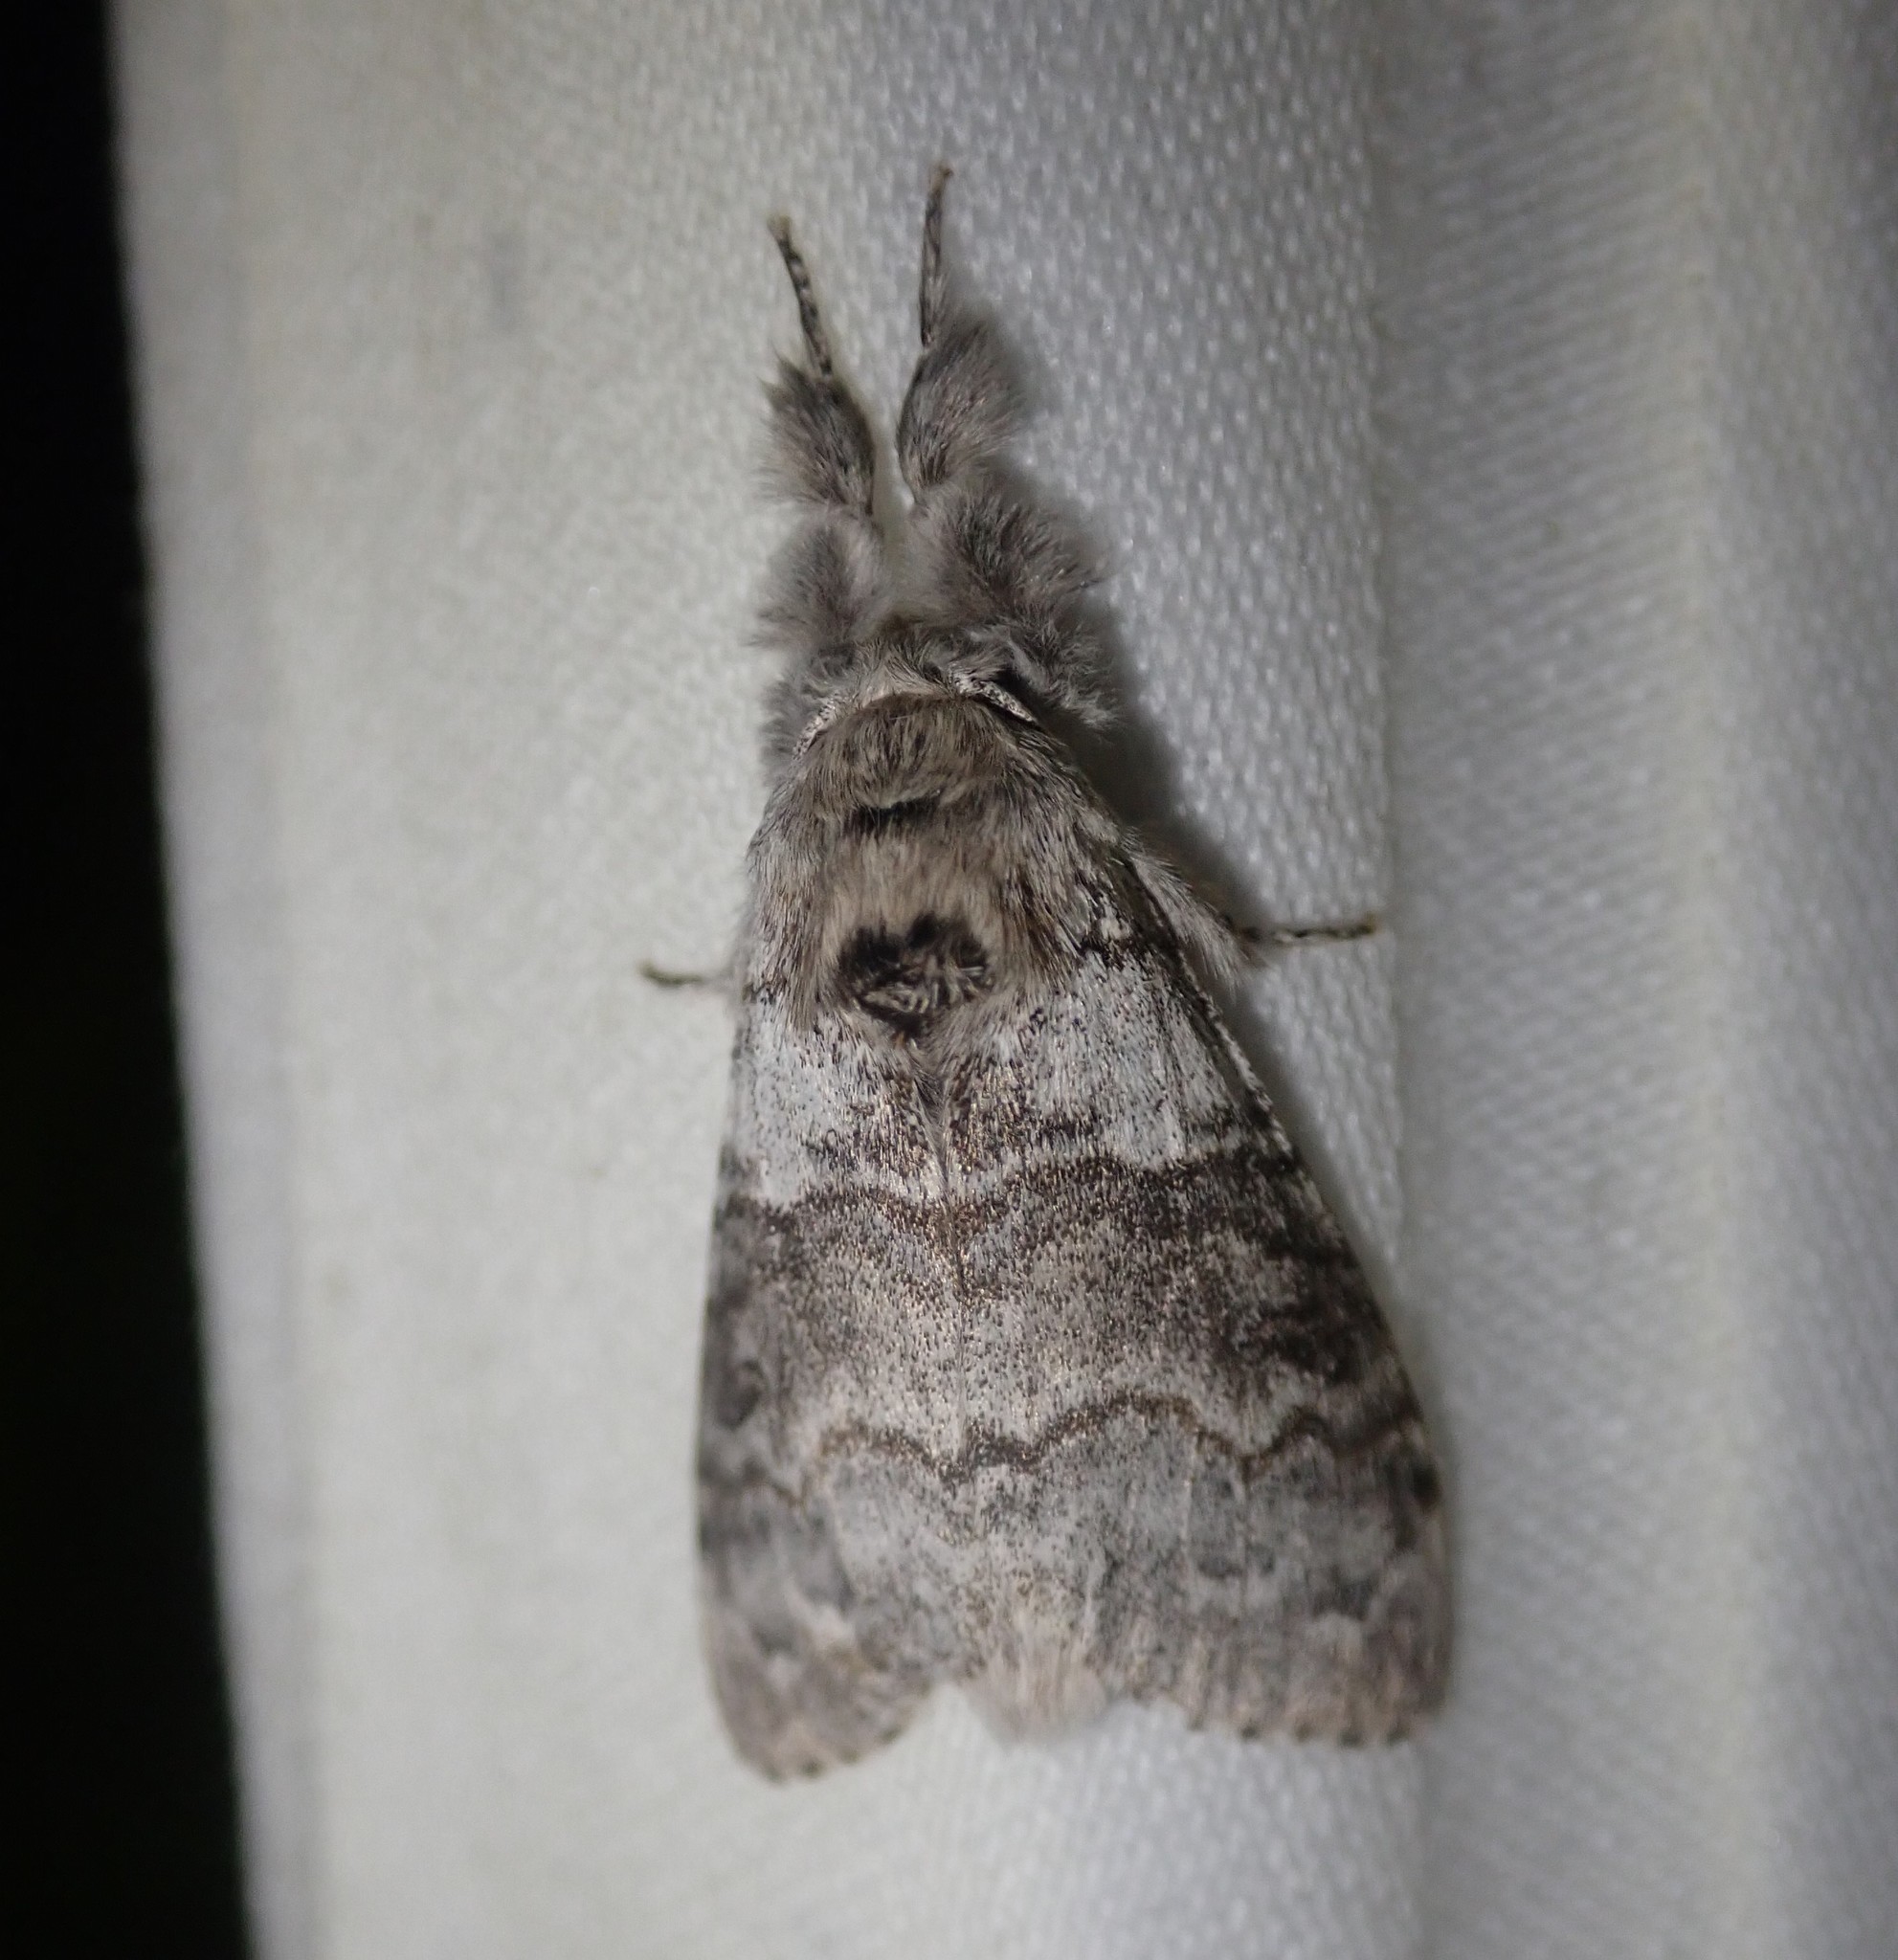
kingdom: Animalia
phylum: Arthropoda
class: Insecta
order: Lepidoptera
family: Erebidae
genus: Calliteara
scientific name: Calliteara pudibunda
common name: Pale tussock
